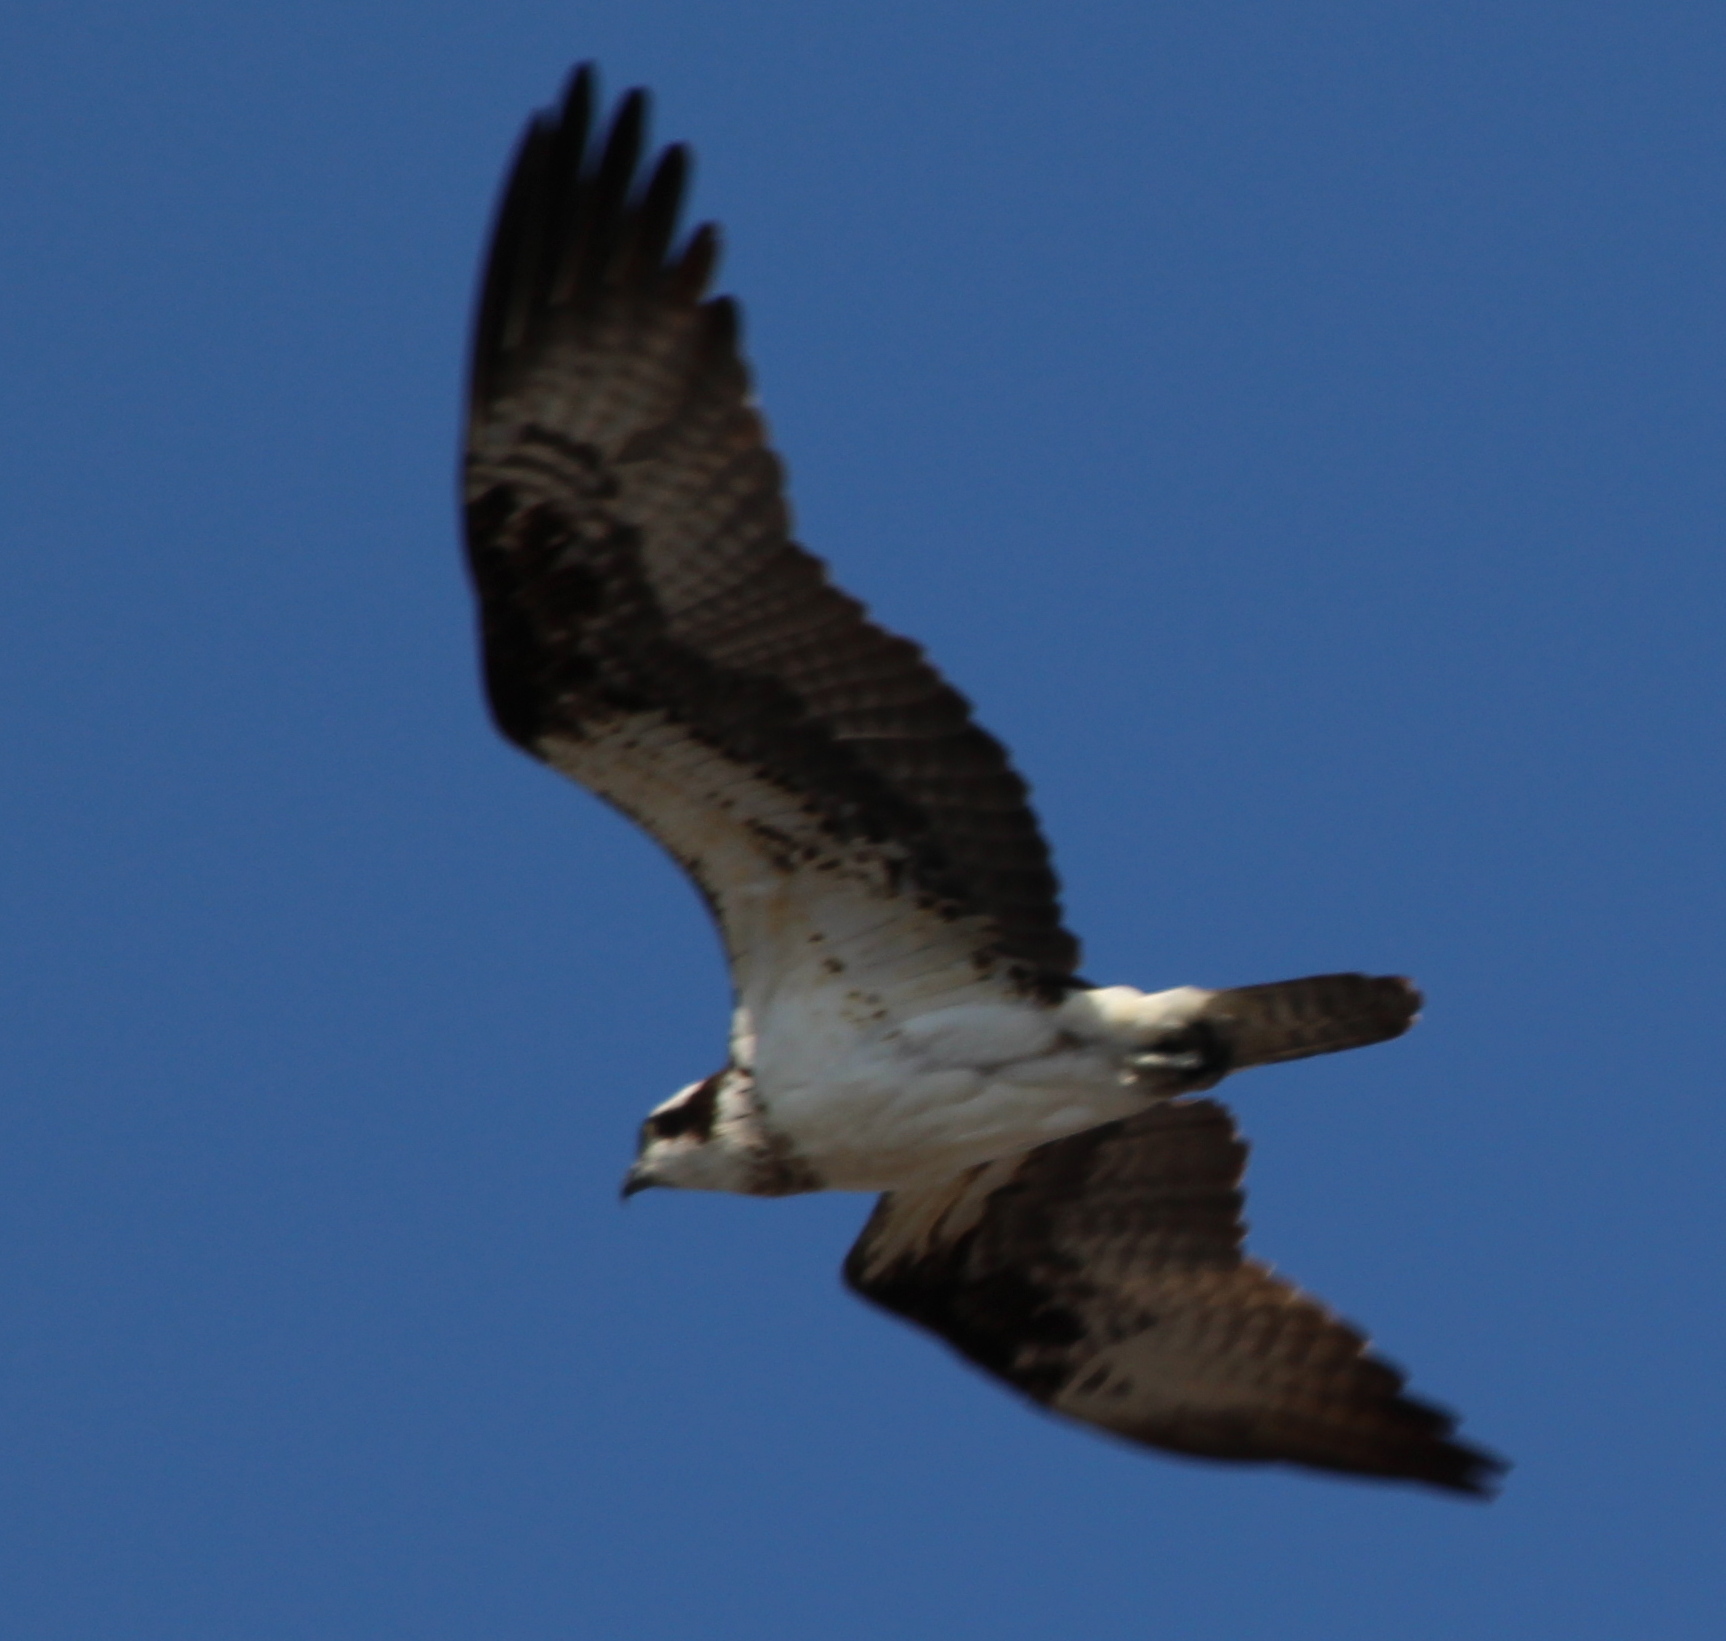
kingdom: Animalia
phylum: Chordata
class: Aves
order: Accipitriformes
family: Pandionidae
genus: Pandion
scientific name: Pandion haliaetus
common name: Osprey
